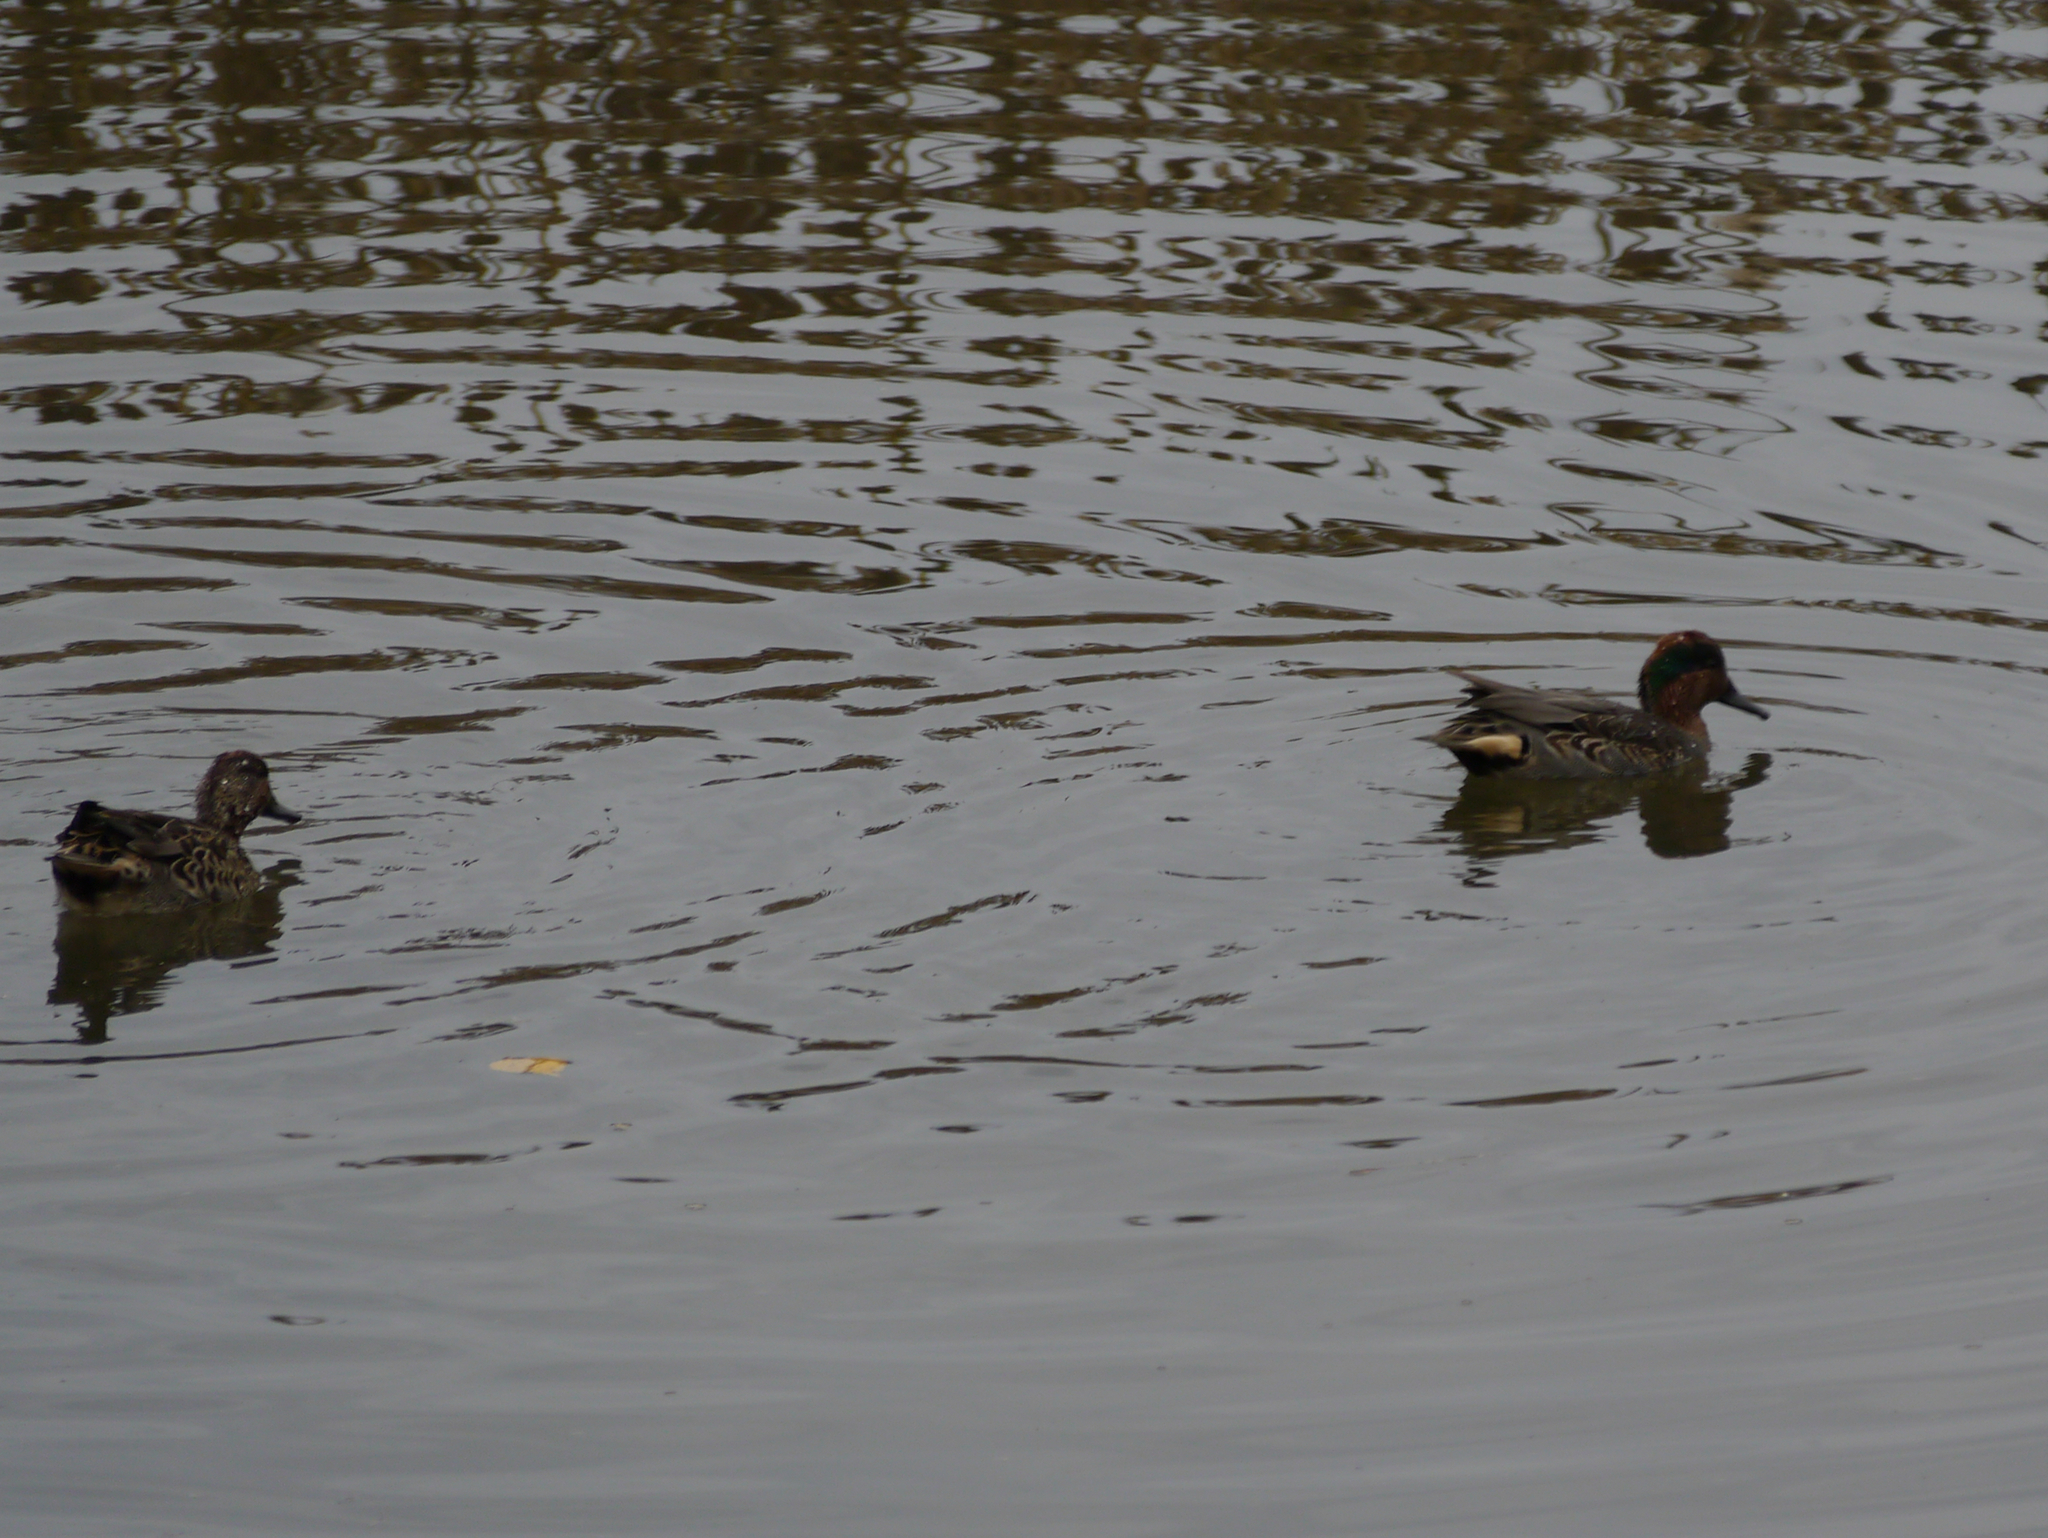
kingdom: Animalia
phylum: Chordata
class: Aves
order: Anseriformes
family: Anatidae
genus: Anas
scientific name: Anas crecca
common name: Eurasian teal
